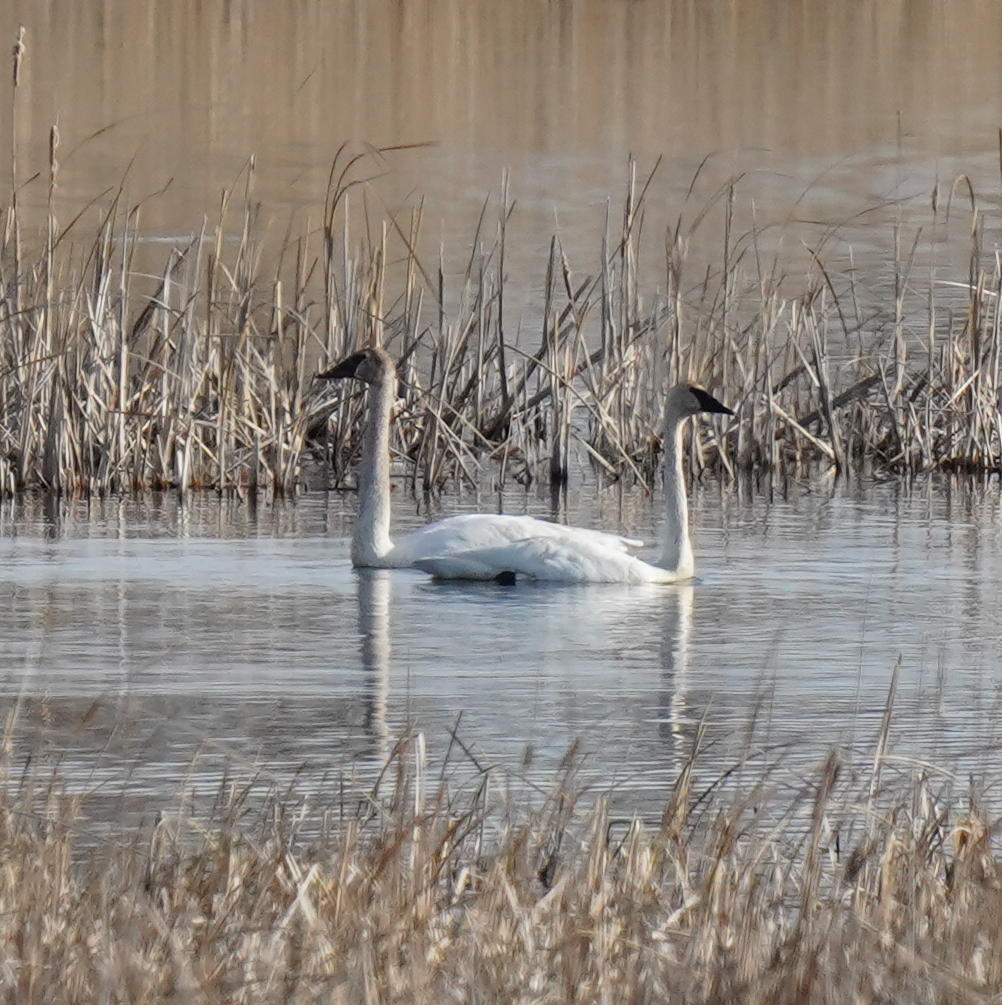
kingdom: Animalia
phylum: Chordata
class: Aves
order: Anseriformes
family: Anatidae
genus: Cygnus
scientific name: Cygnus buccinator
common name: Trumpeter swan
